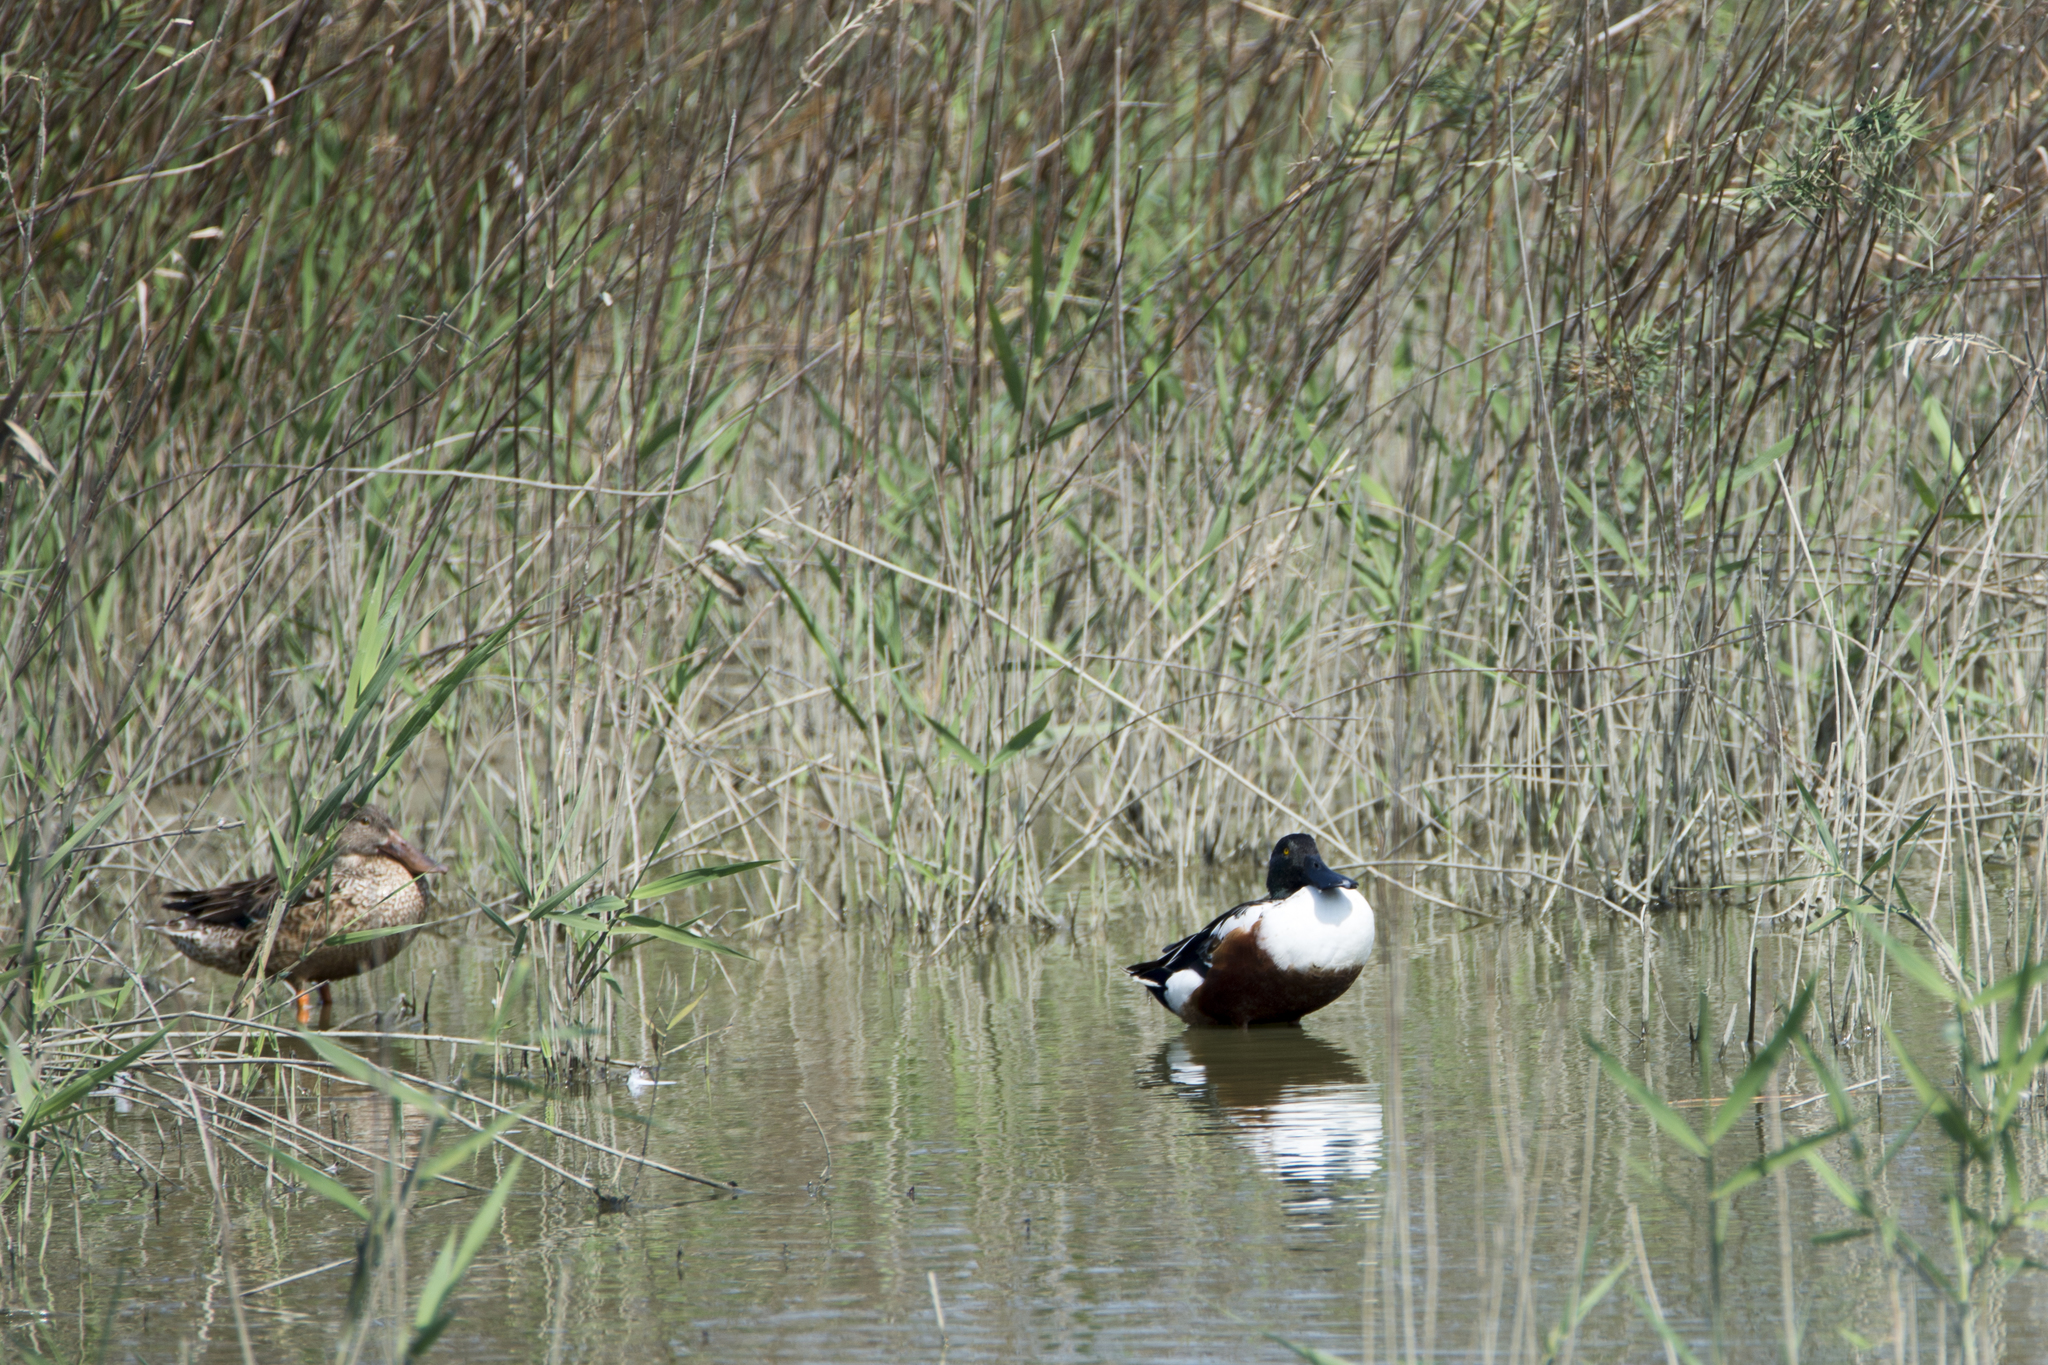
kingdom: Animalia
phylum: Chordata
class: Aves
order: Anseriformes
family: Anatidae
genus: Spatula
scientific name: Spatula clypeata
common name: Northern shoveler
